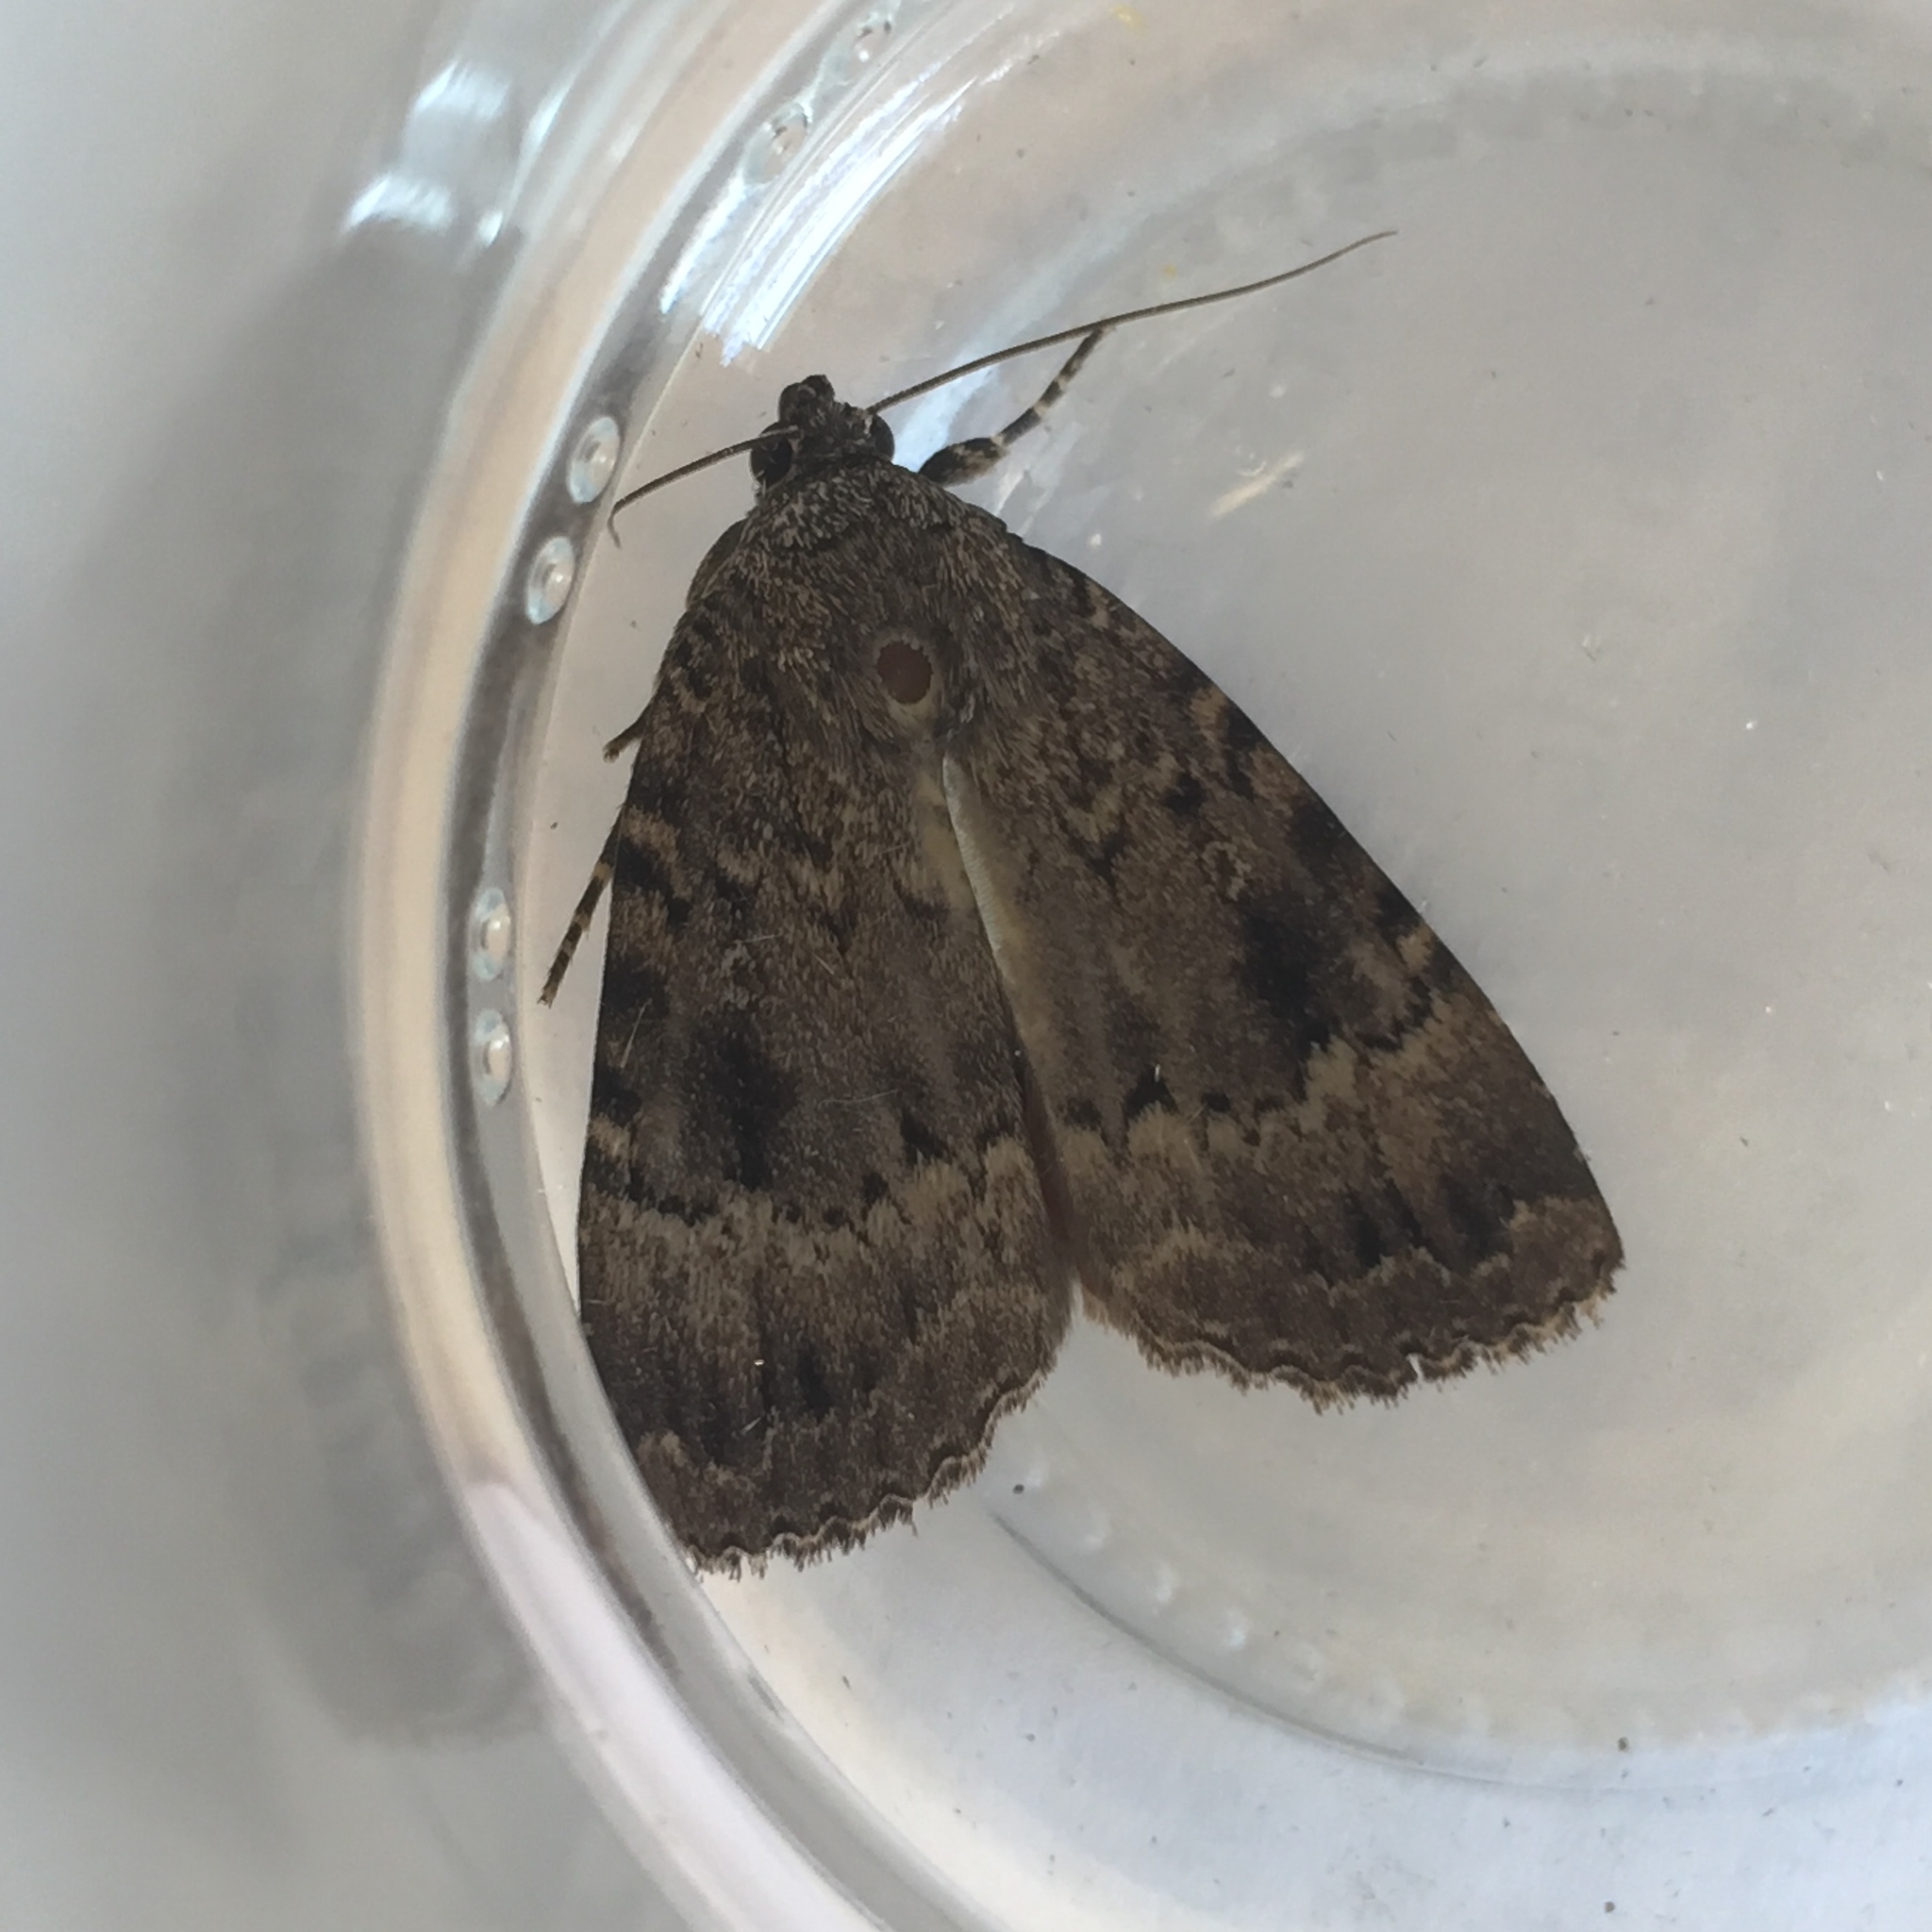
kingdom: Animalia
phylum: Arthropoda
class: Insecta
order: Lepidoptera
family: Noctuidae
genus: Amphipyra
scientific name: Amphipyra pyramidea
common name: Copper underwing
